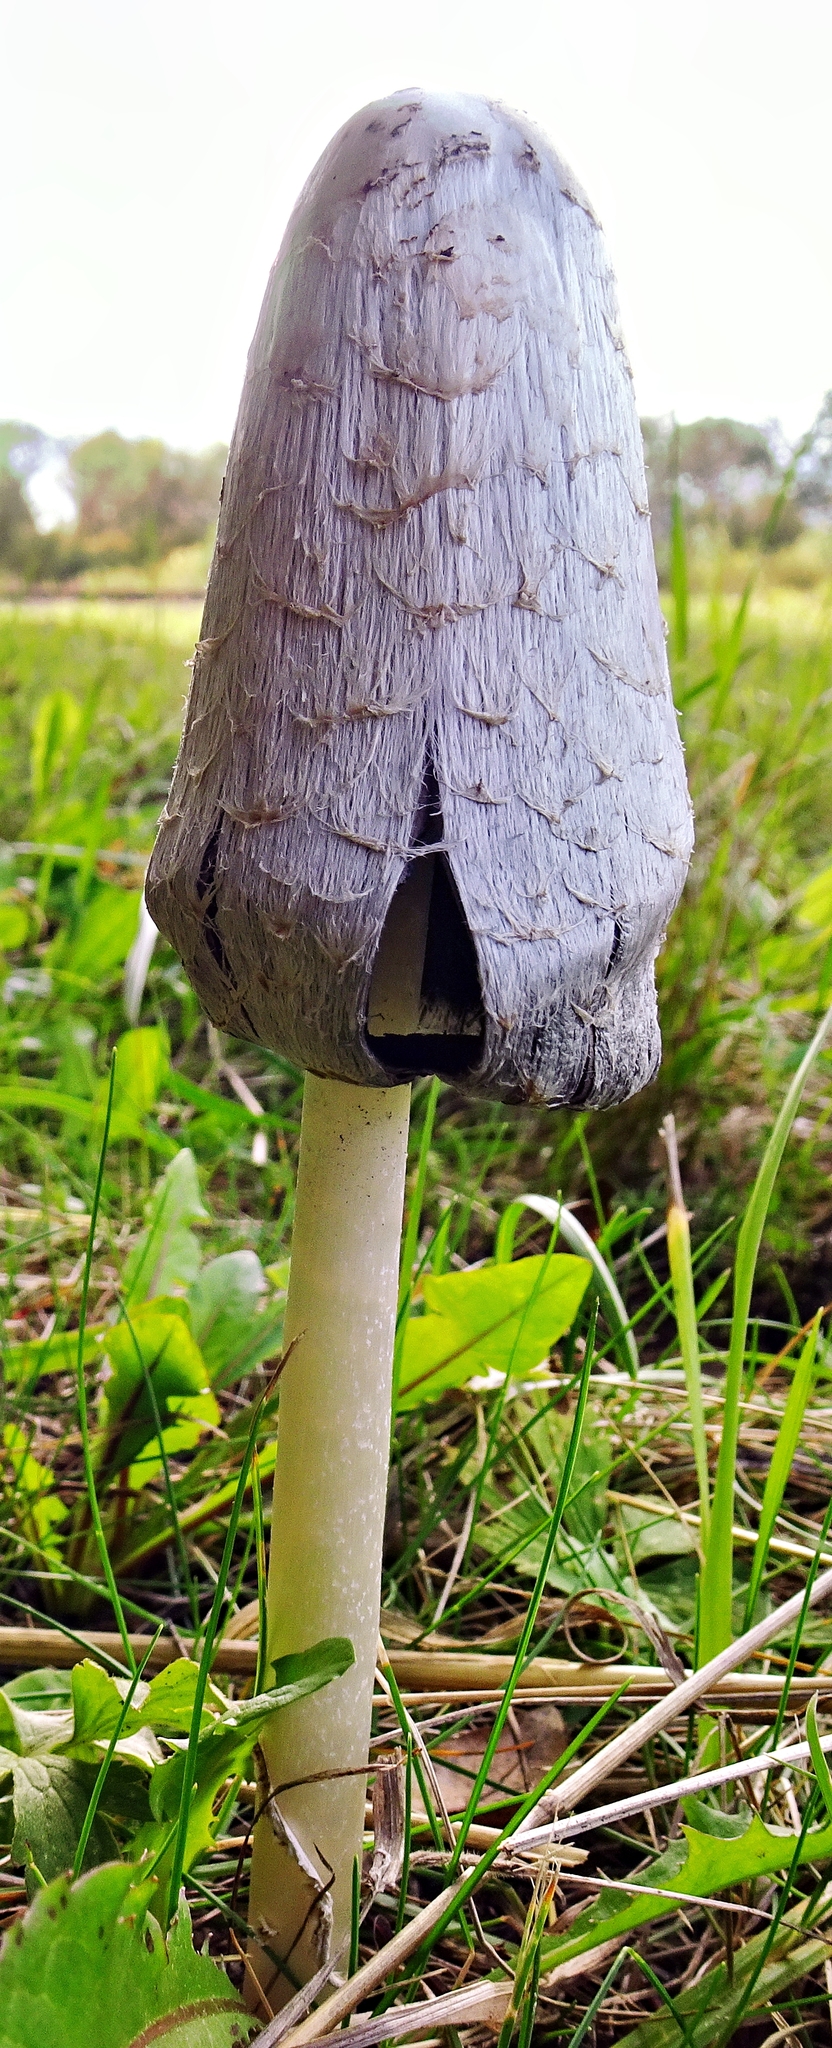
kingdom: Fungi
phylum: Basidiomycota
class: Agaricomycetes
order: Agaricales
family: Agaricaceae
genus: Coprinus
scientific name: Coprinus comatus
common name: Lawyer's wig
